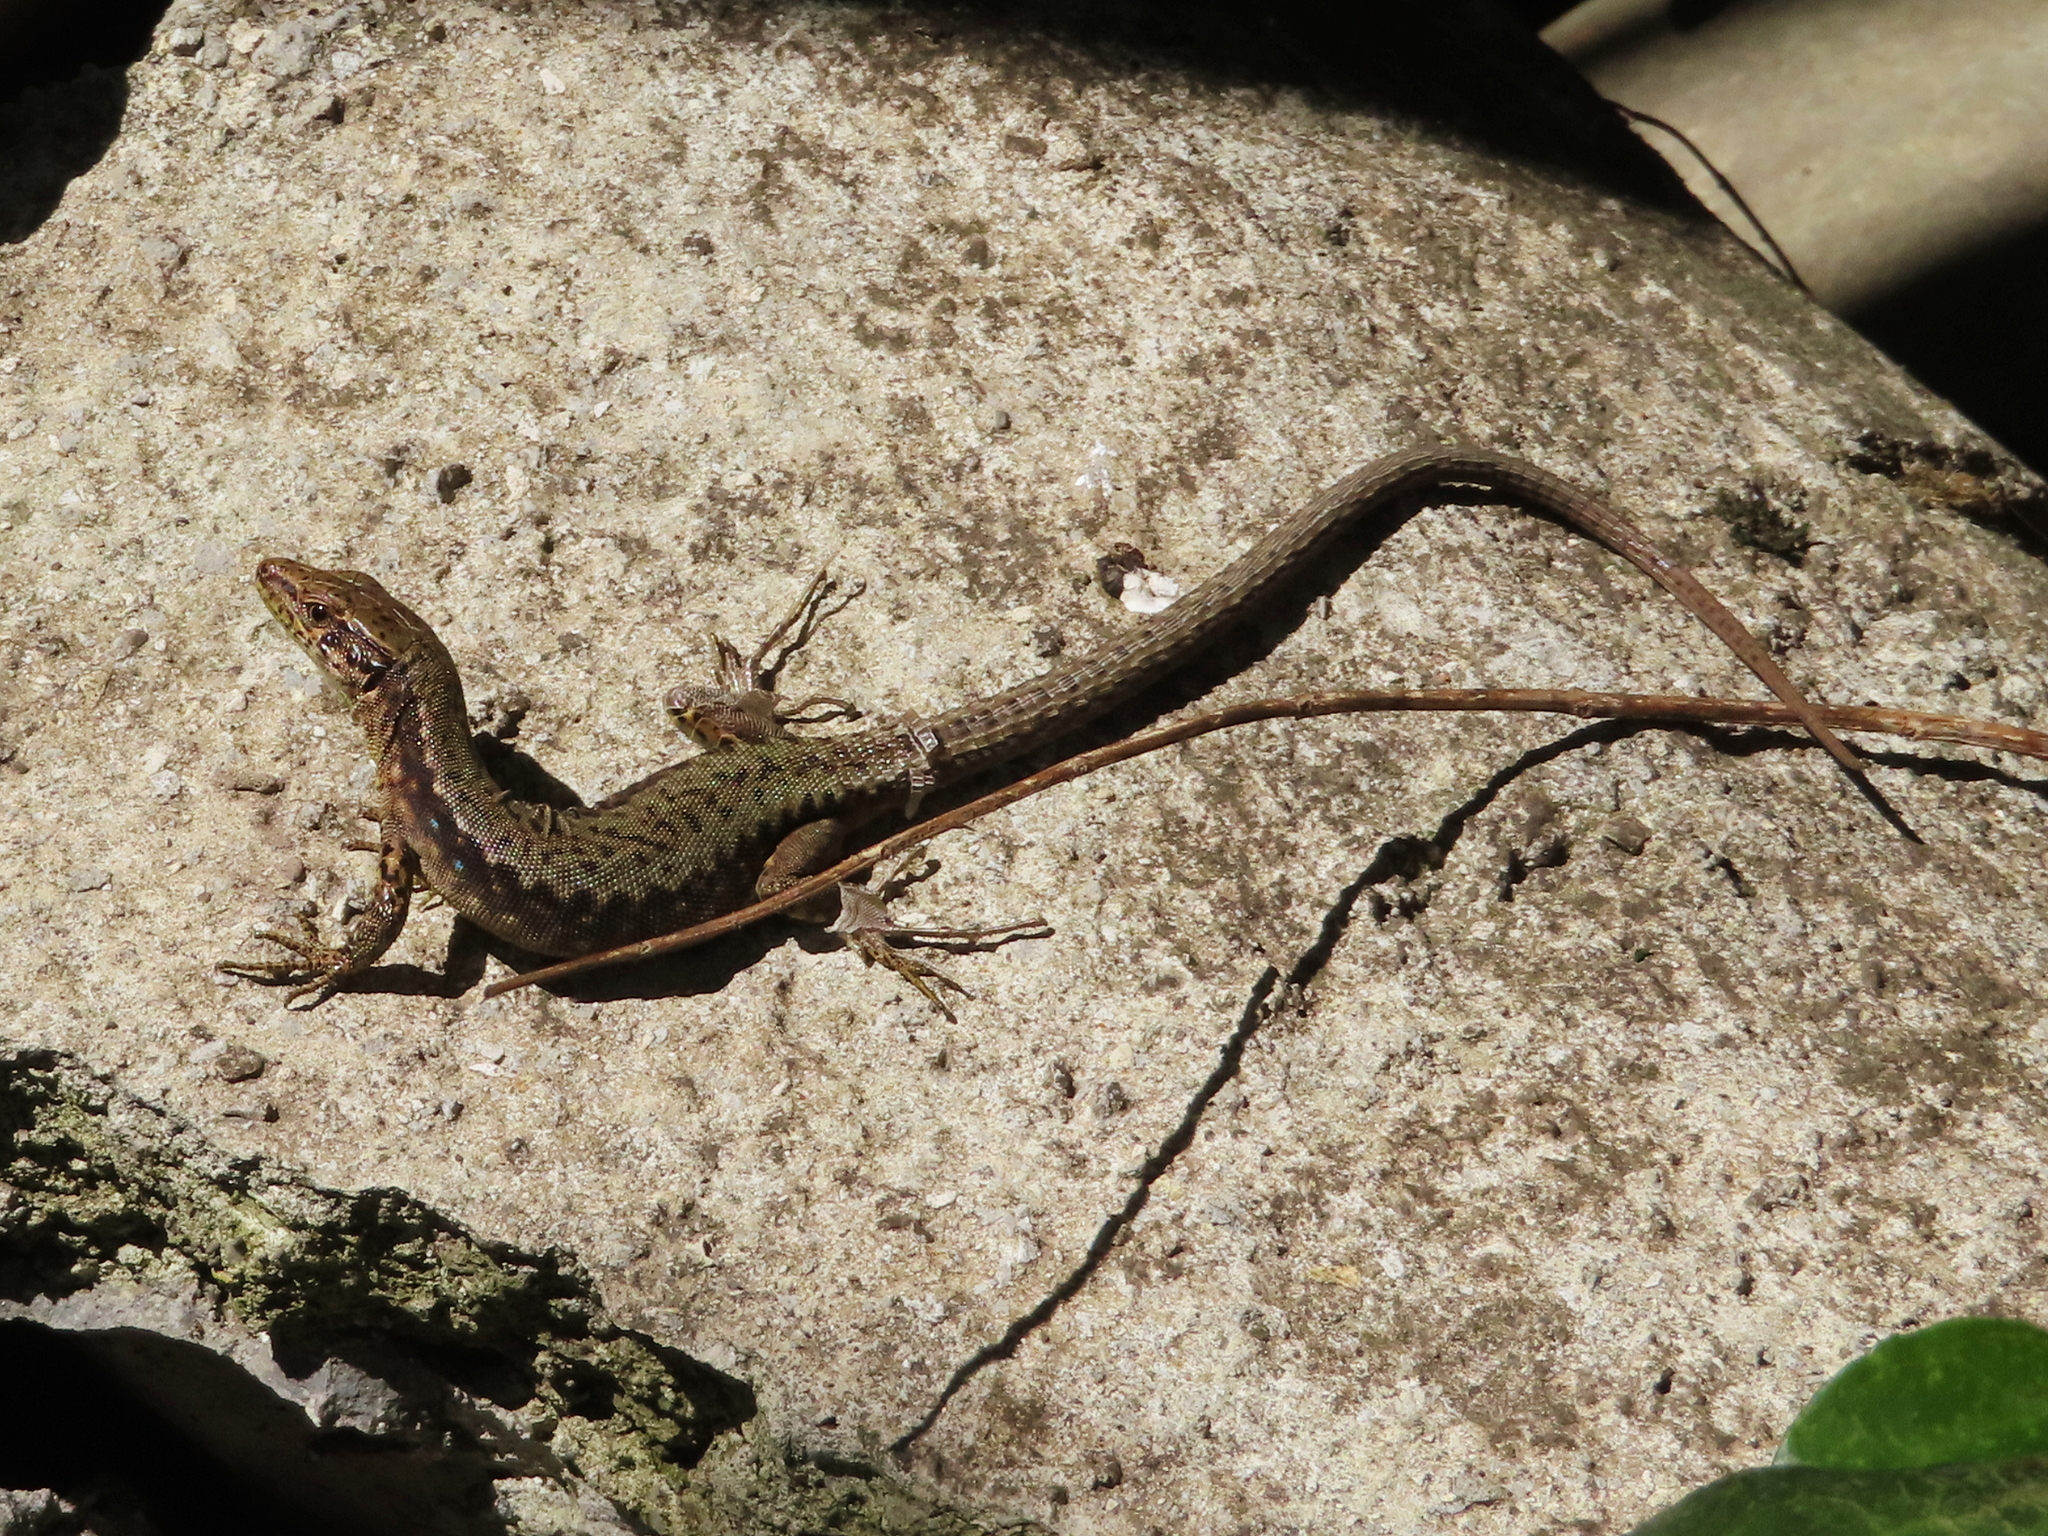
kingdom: Animalia
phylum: Chordata
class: Squamata
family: Lacertidae
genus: Darevskia
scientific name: Darevskia mixta
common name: Ajarian lizard
